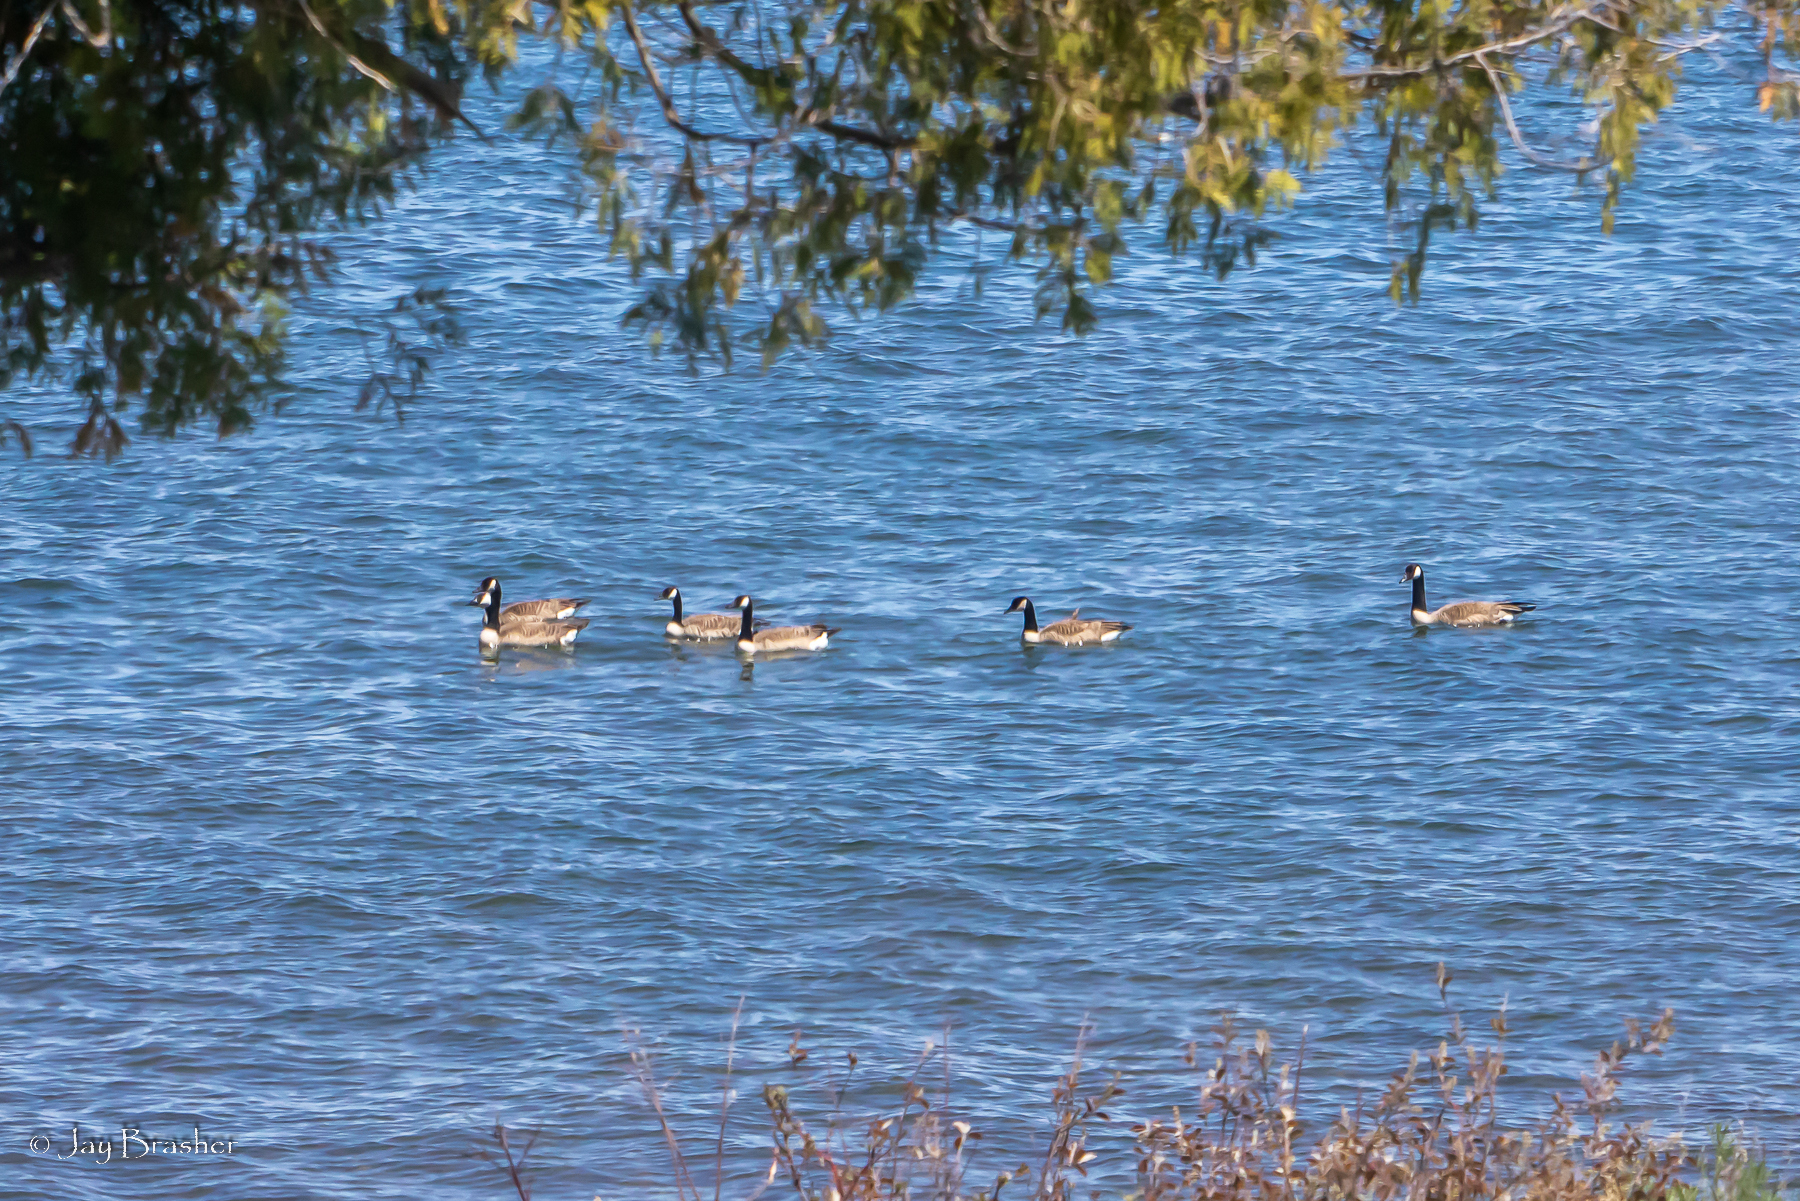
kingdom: Animalia
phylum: Chordata
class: Aves
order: Anseriformes
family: Anatidae
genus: Branta
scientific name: Branta canadensis
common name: Canada goose
